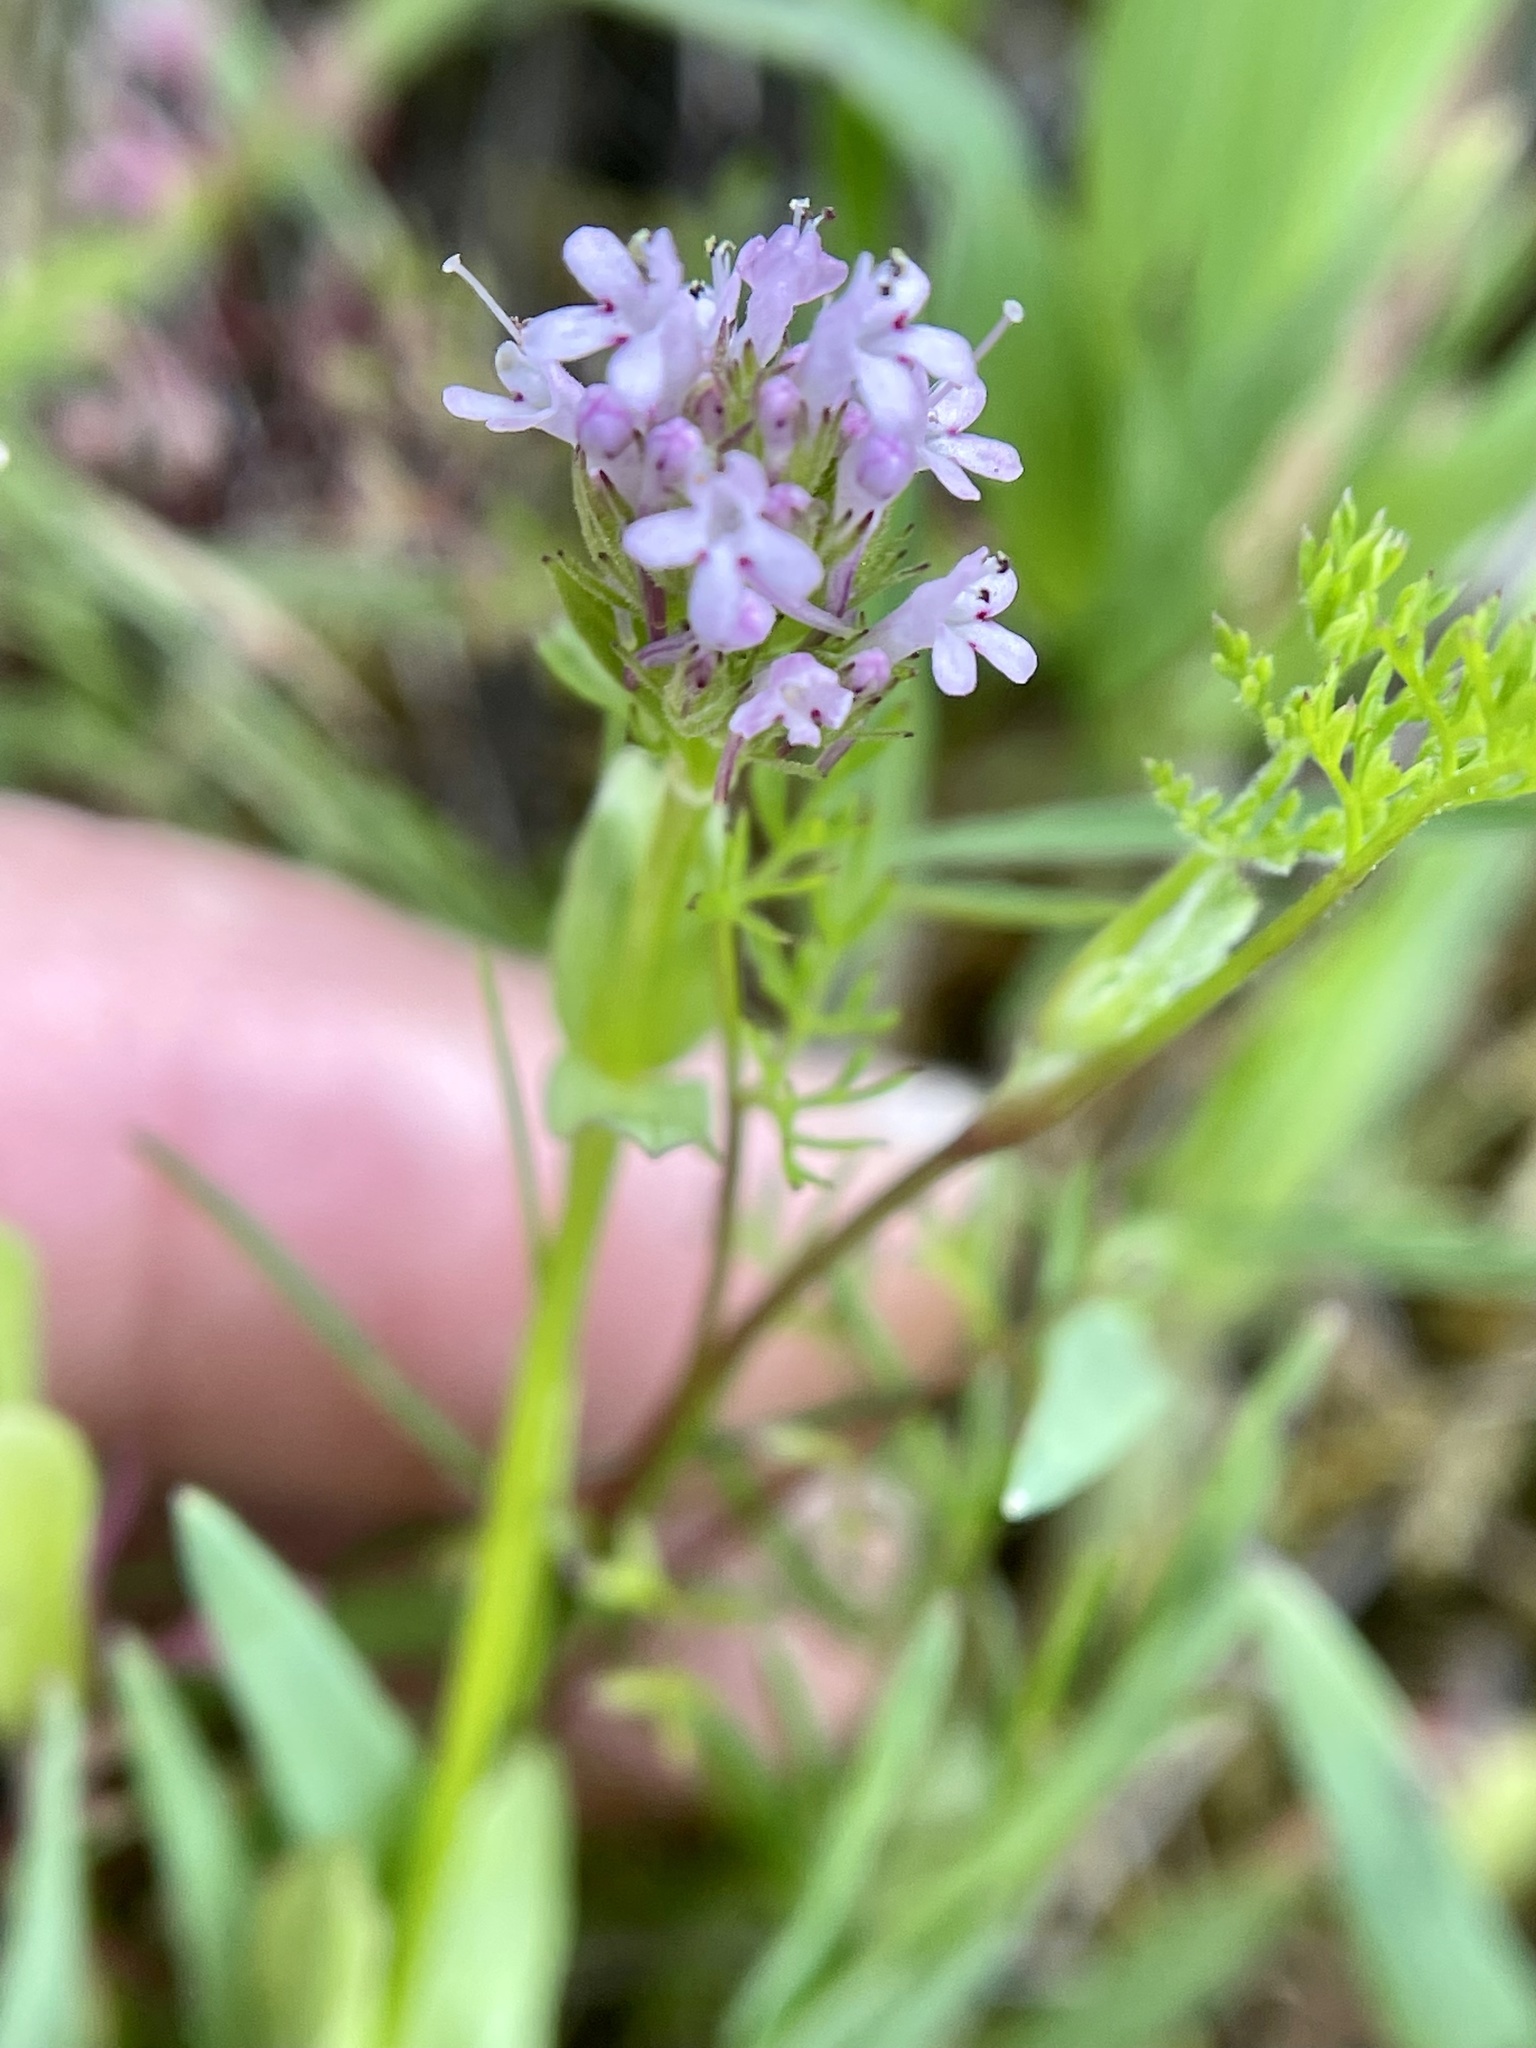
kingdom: Plantae
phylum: Tracheophyta
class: Magnoliopsida
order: Dipsacales
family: Caprifoliaceae
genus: Plectritis
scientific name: Plectritis ciliosa
